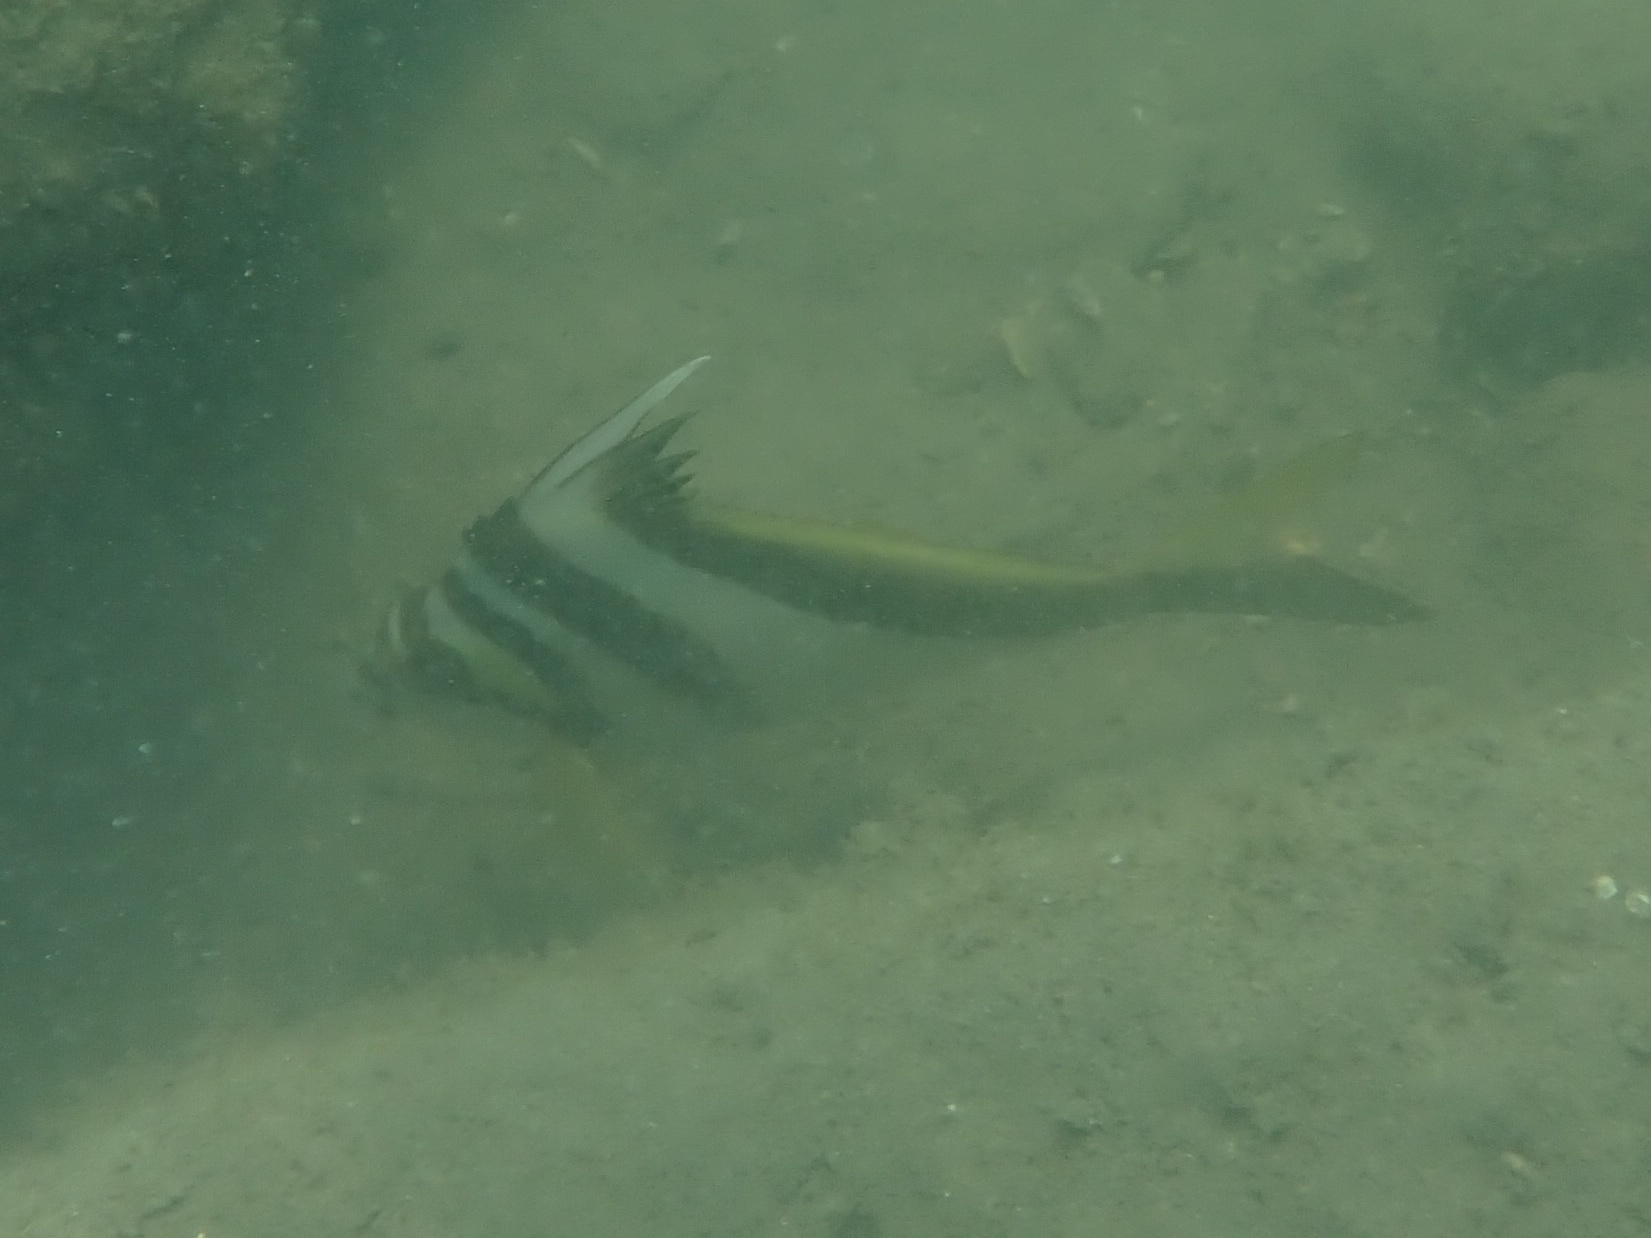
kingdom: Animalia
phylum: Chordata
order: Perciformes
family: Cheilodactylidae
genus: Cheilodactylus
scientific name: Cheilodactylus vestitus
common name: Crested morwong
